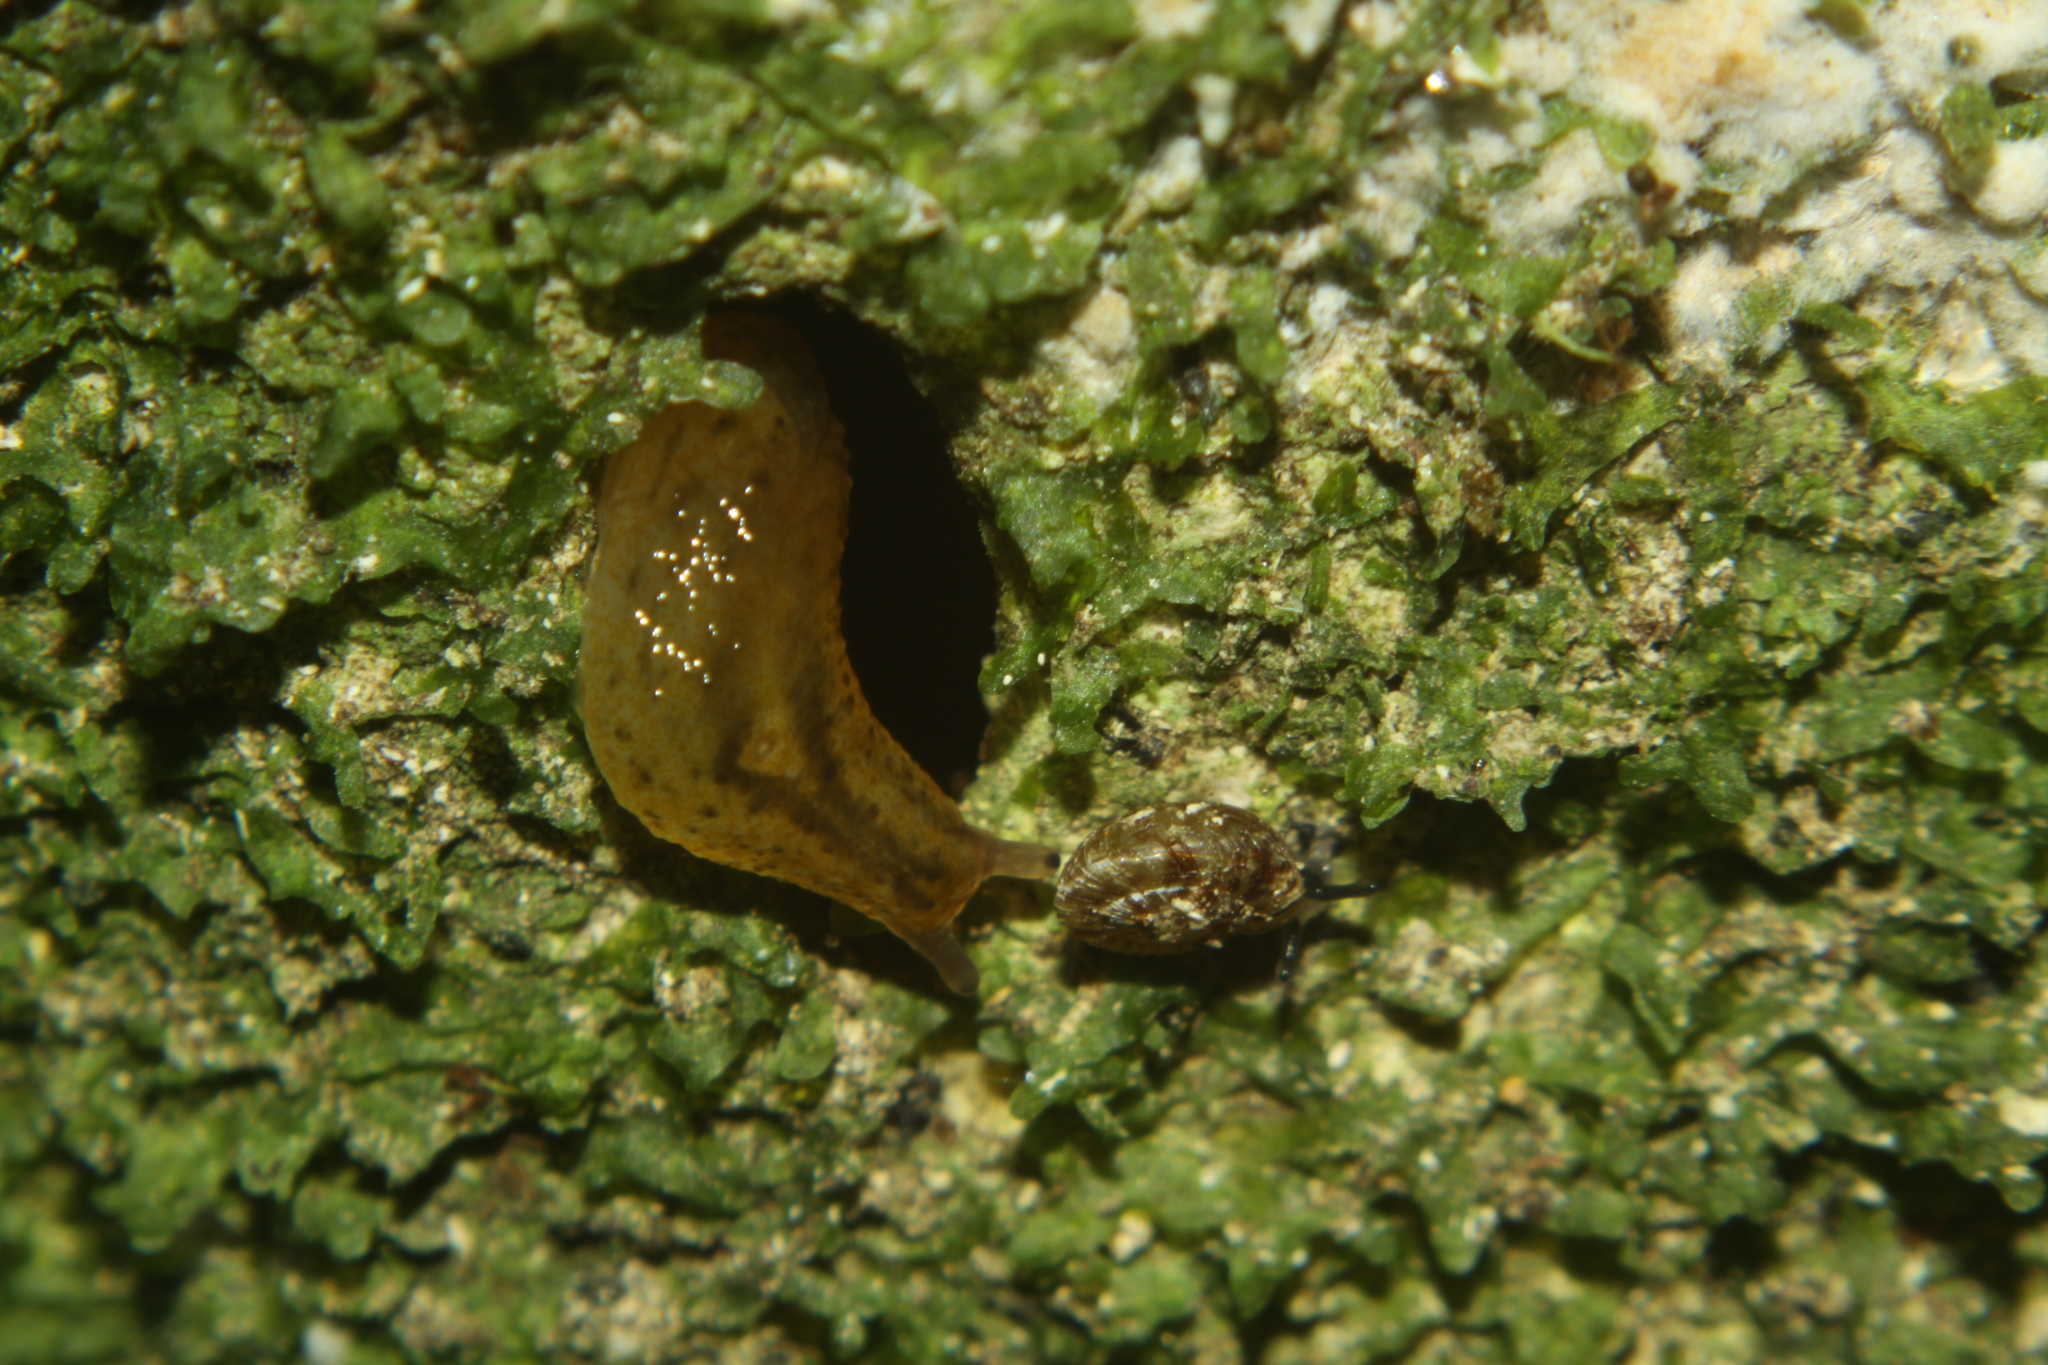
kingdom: Animalia
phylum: Mollusca
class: Gastropoda
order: Stylommatophora
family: Charopidae
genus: Phacussa
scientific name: Phacussa lucetta
